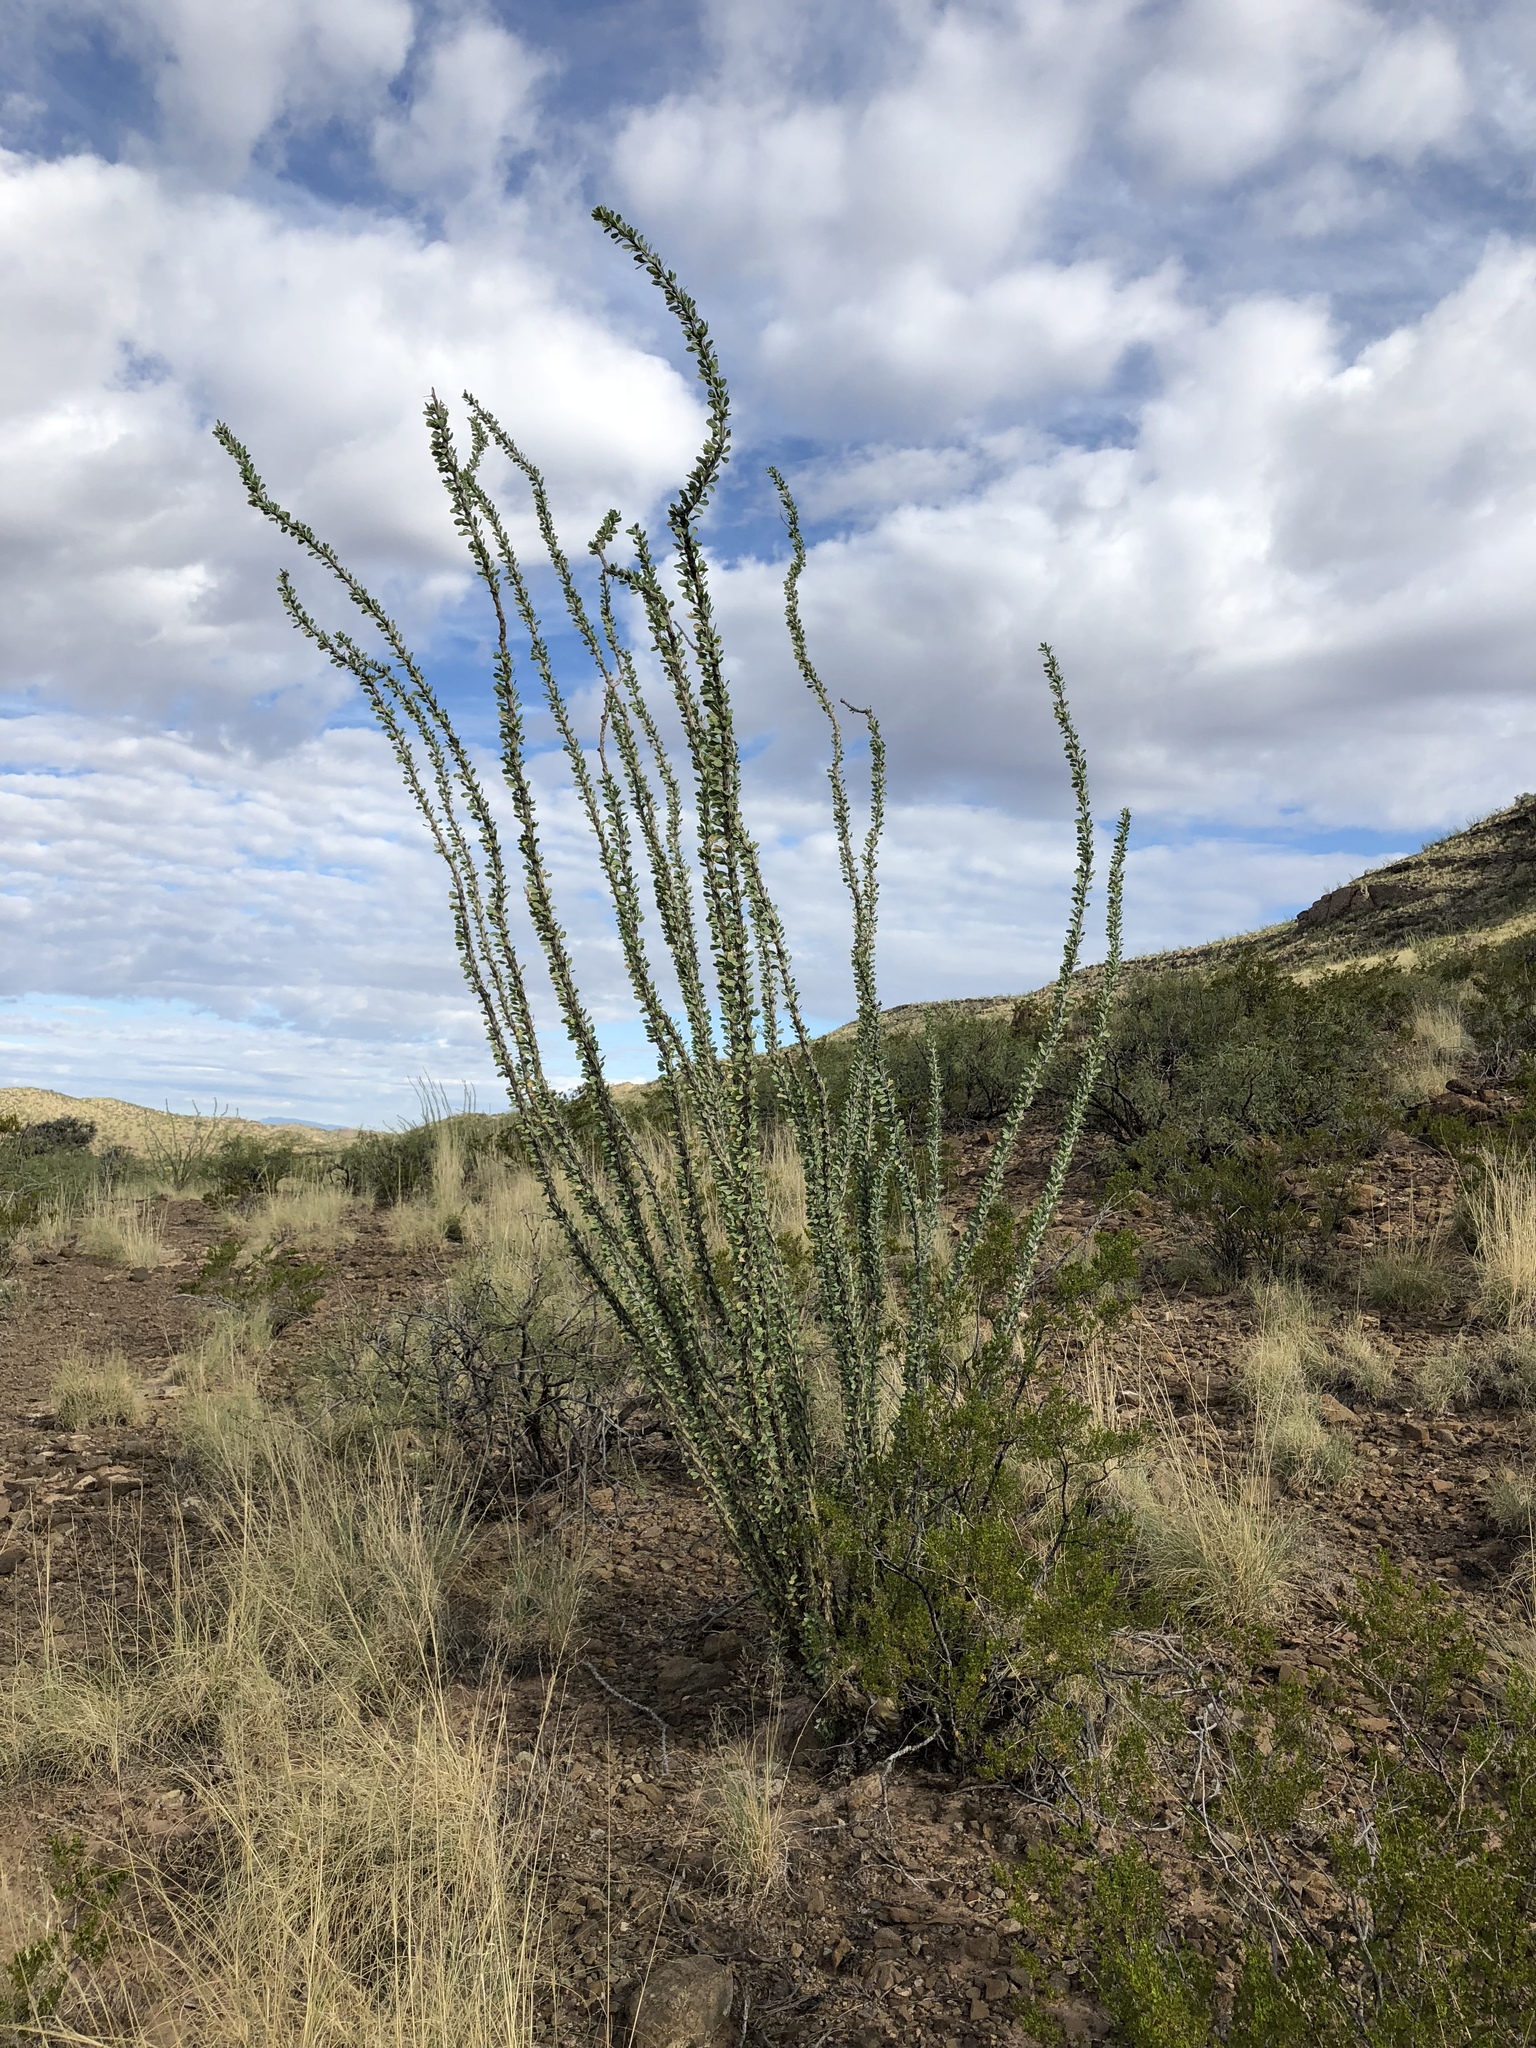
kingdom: Plantae
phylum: Tracheophyta
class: Magnoliopsida
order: Ericales
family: Fouquieriaceae
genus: Fouquieria
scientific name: Fouquieria splendens
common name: Vine-cactus
